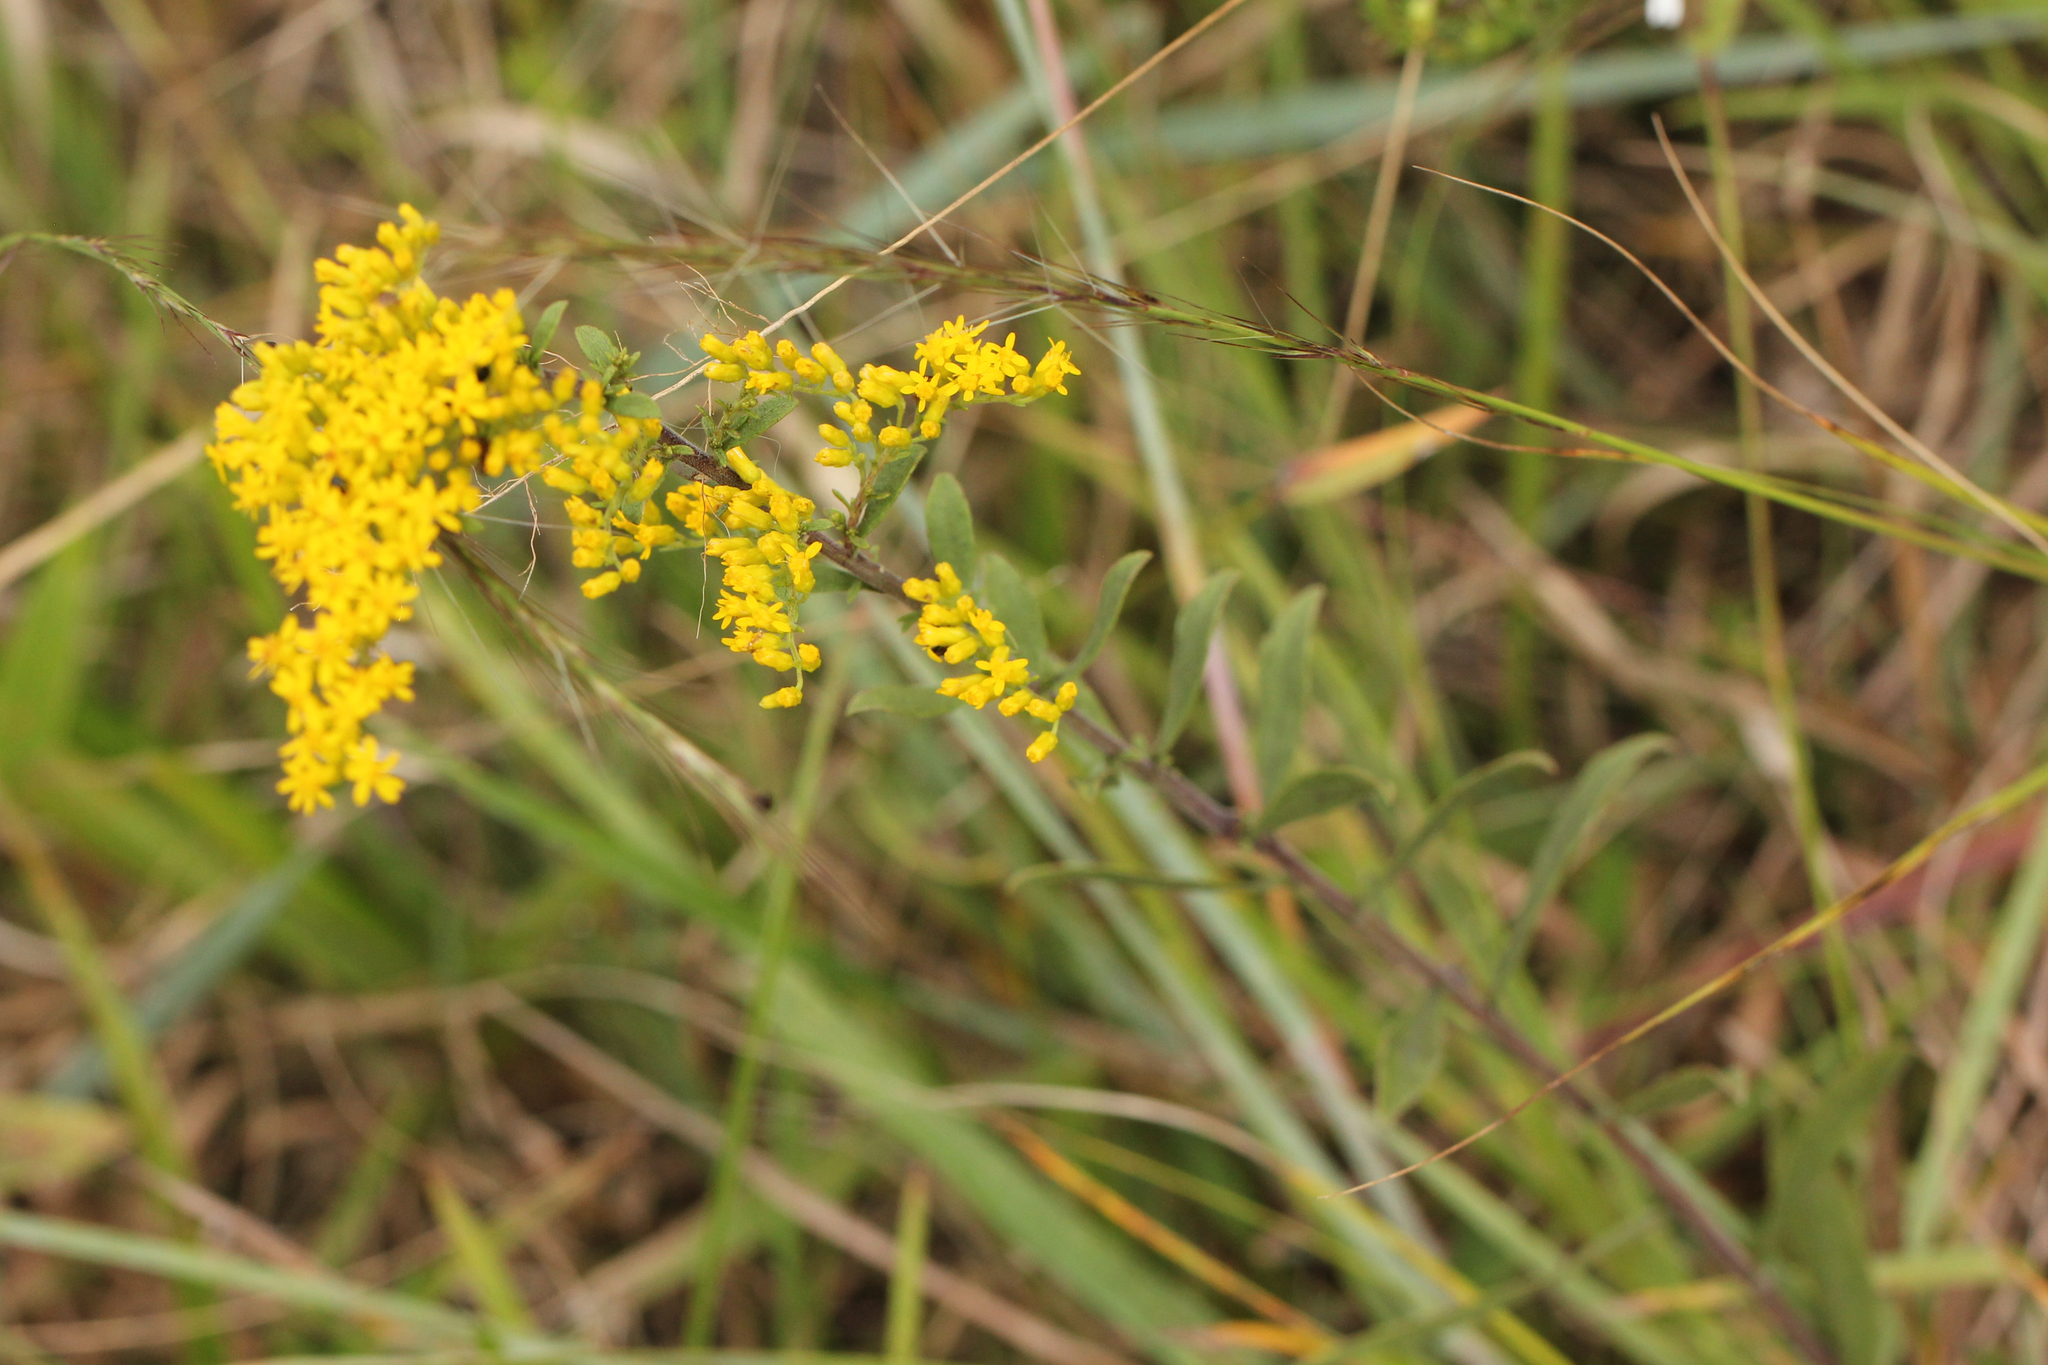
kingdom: Plantae
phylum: Tracheophyta
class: Magnoliopsida
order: Asterales
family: Asteraceae
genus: Solidago
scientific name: Solidago nemoralis
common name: Grey goldenrod
